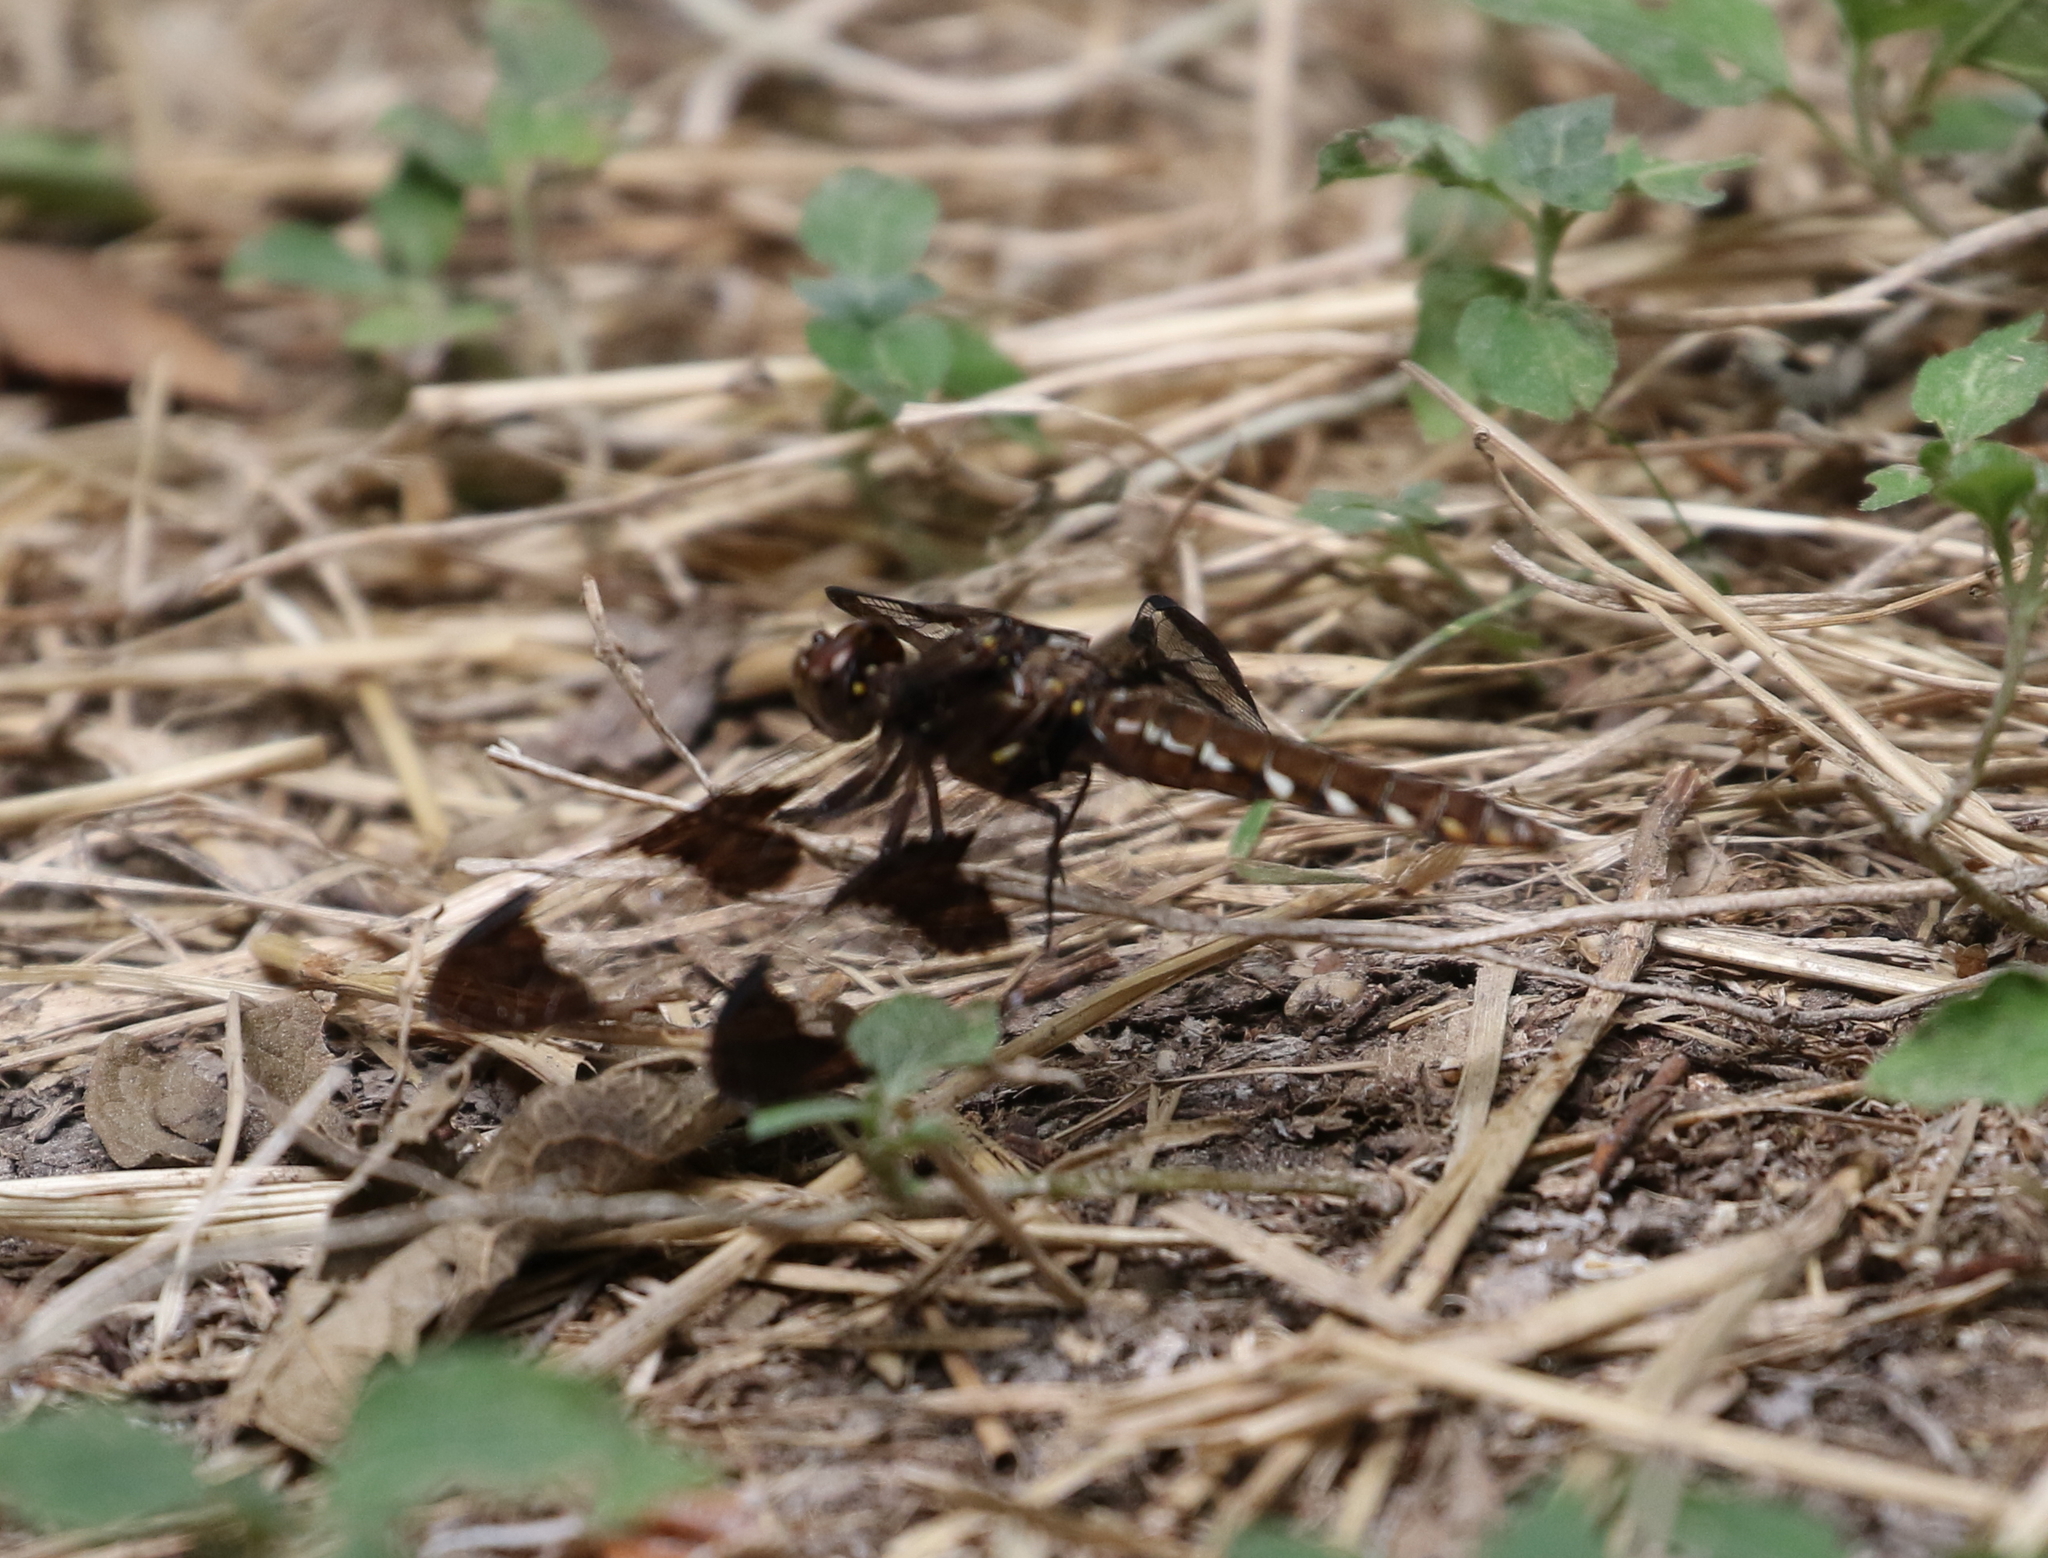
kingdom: Animalia
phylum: Arthropoda
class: Insecta
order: Odonata
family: Libellulidae
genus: Plathemis
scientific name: Plathemis lydia
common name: Common whitetail
